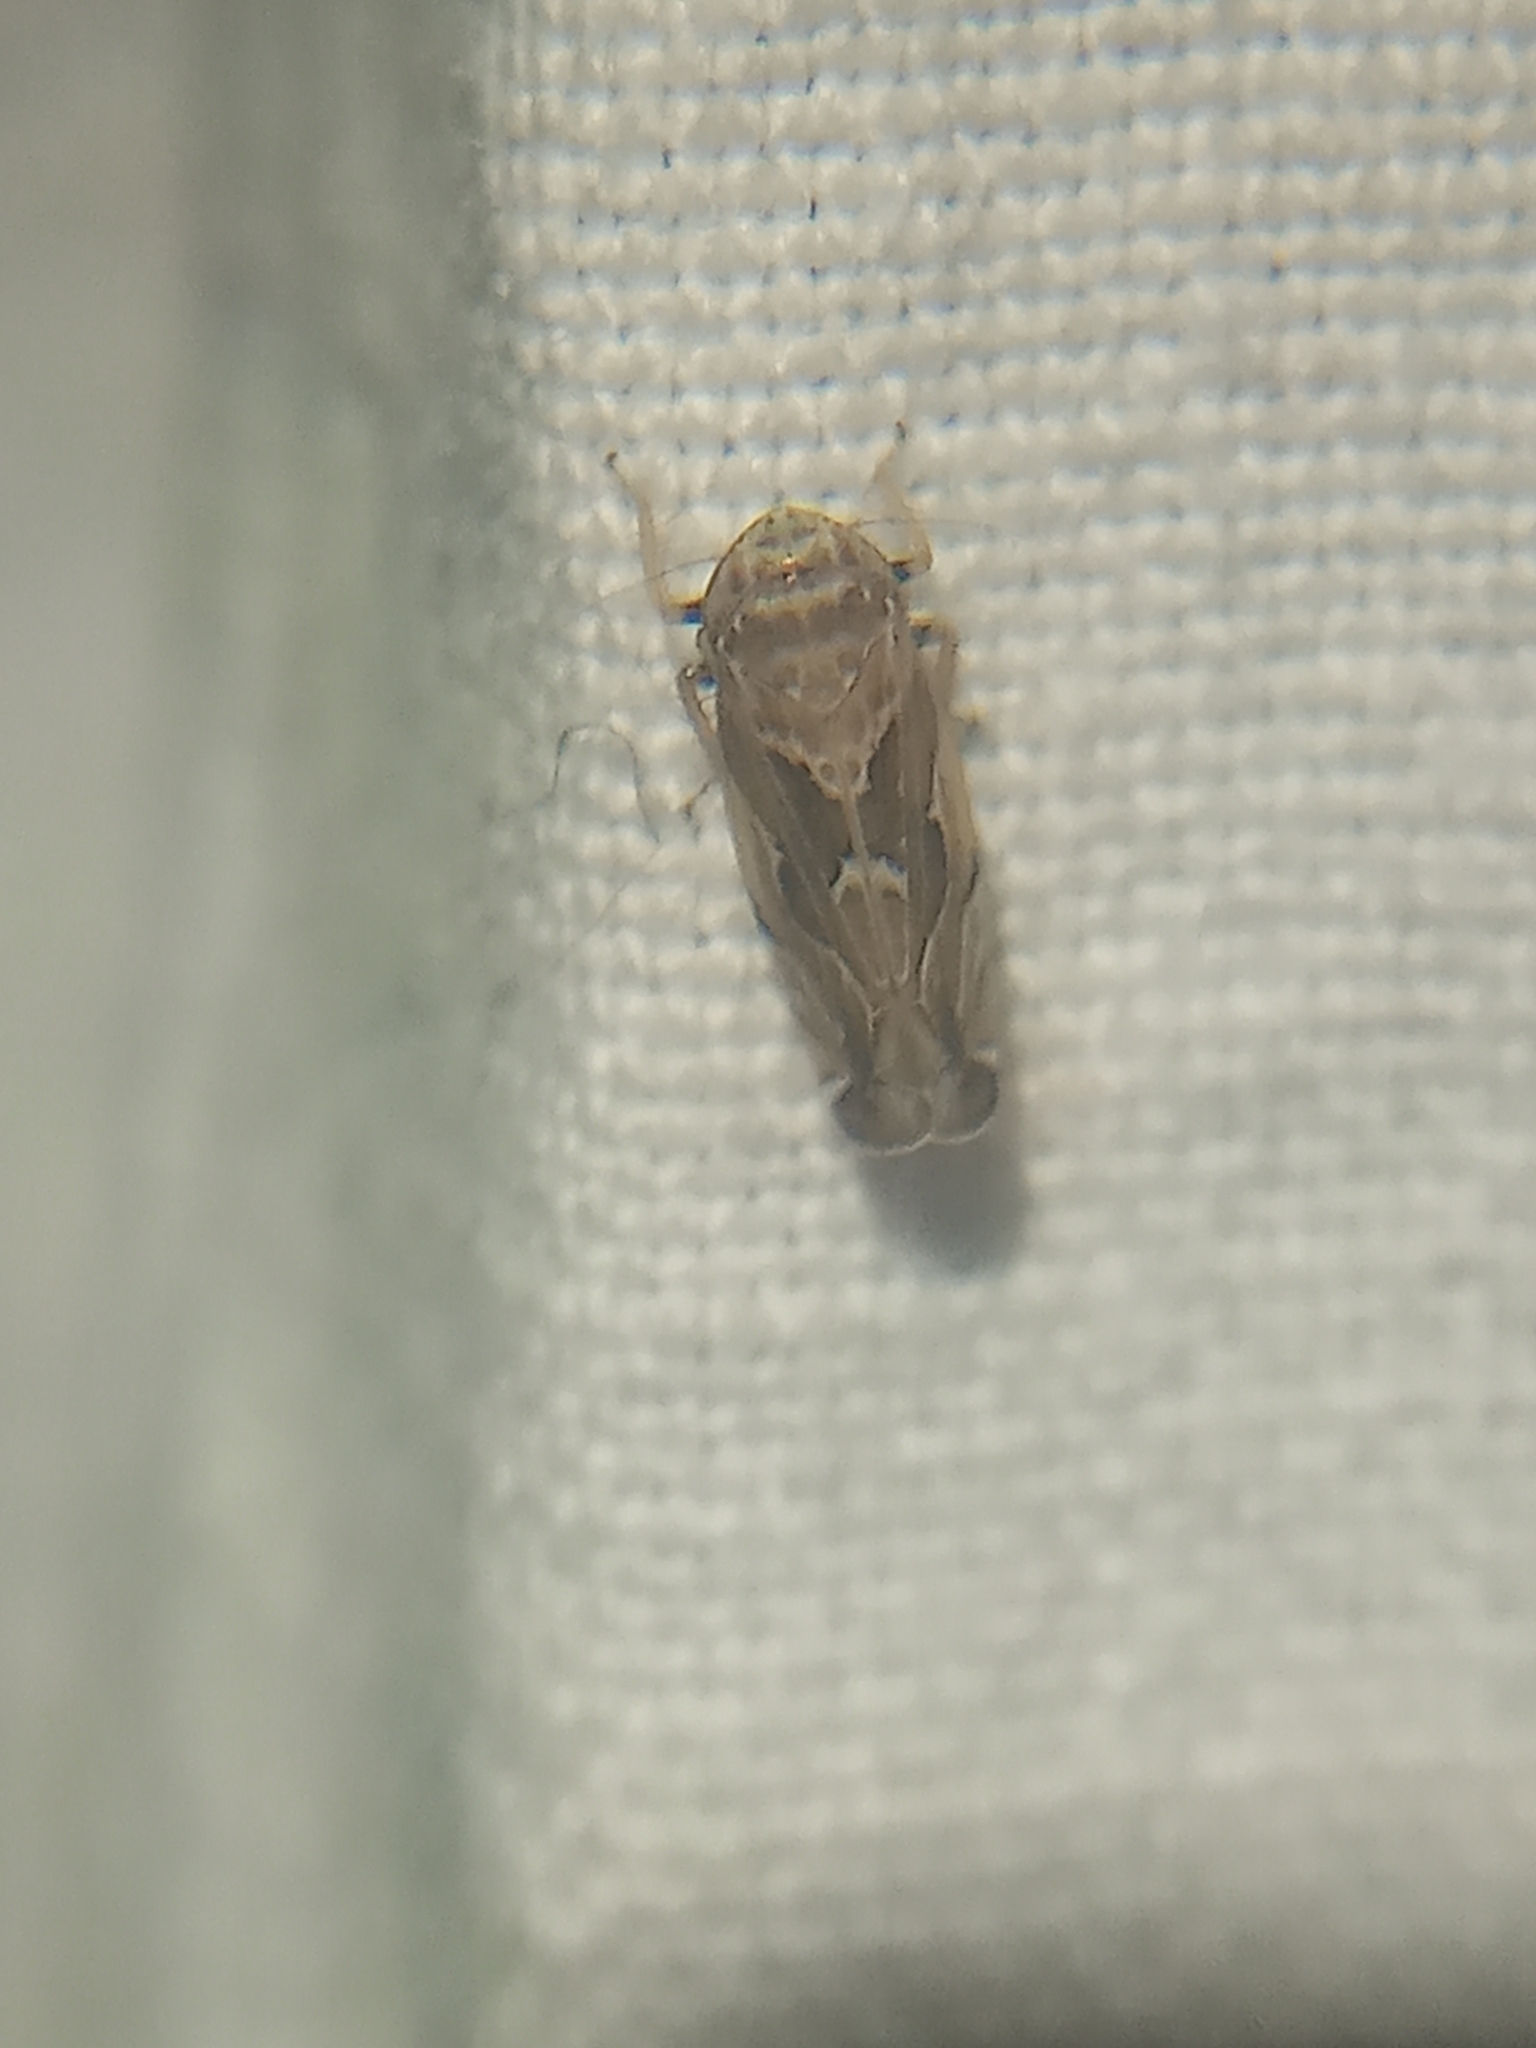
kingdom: Animalia
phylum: Arthropoda
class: Insecta
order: Hemiptera
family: Cicadellidae
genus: Sanctanus
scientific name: Sanctanus fasciatus
